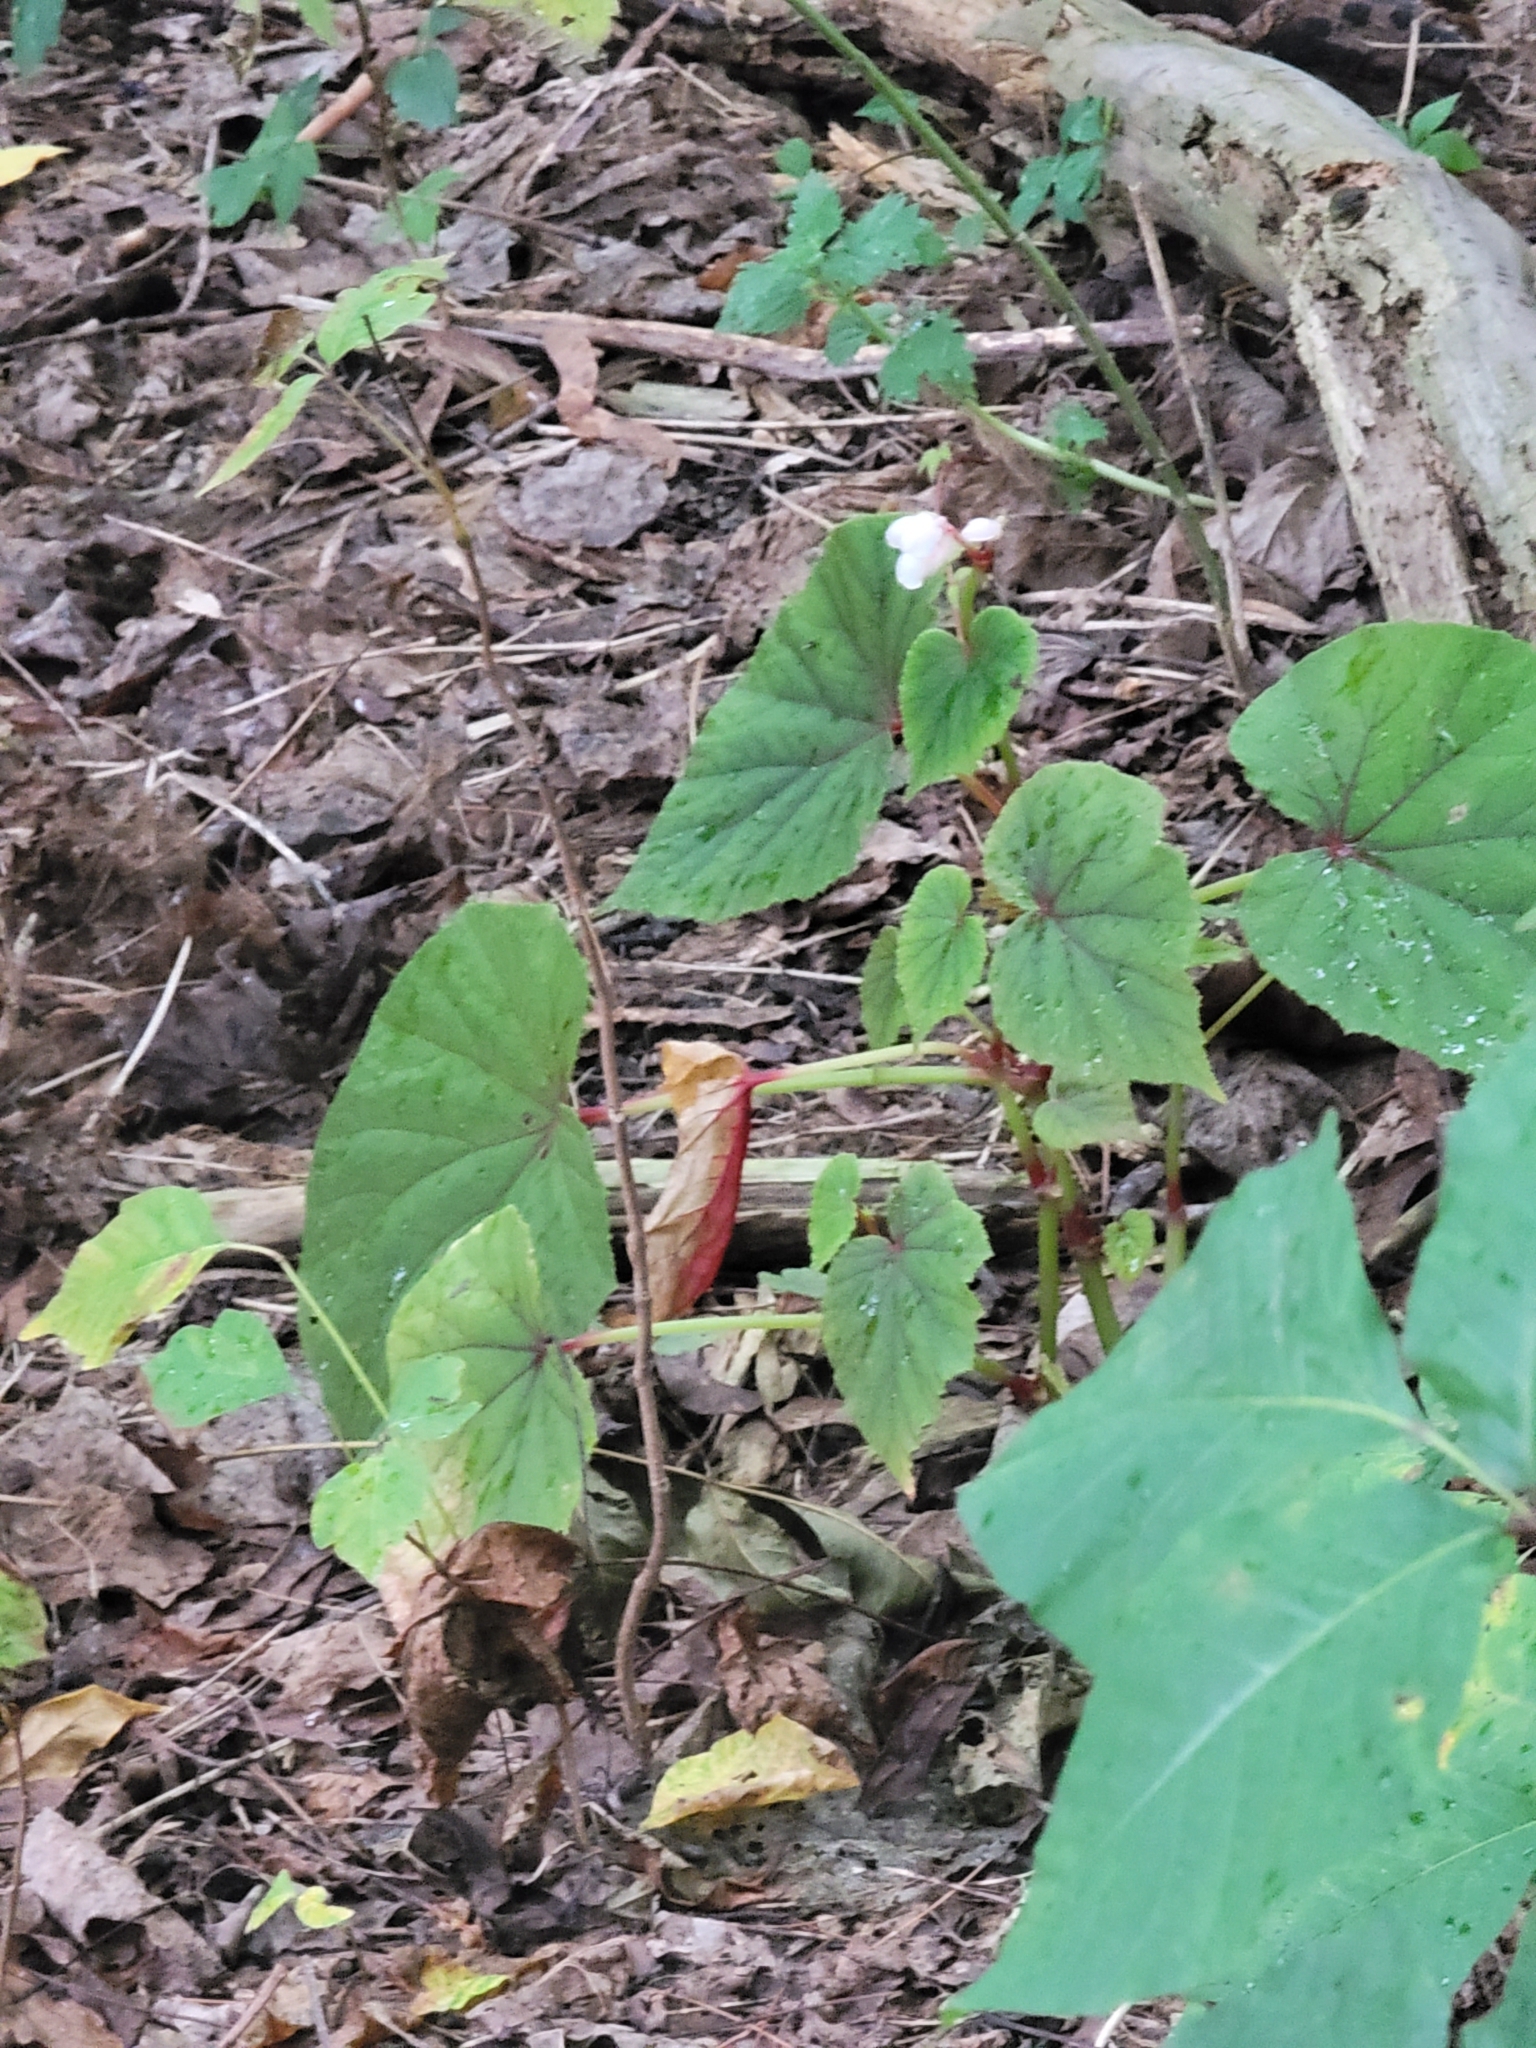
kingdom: Plantae
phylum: Tracheophyta
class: Magnoliopsida
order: Cucurbitales
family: Begoniaceae
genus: Begonia
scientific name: Begonia grandis
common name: Hardy begonia
